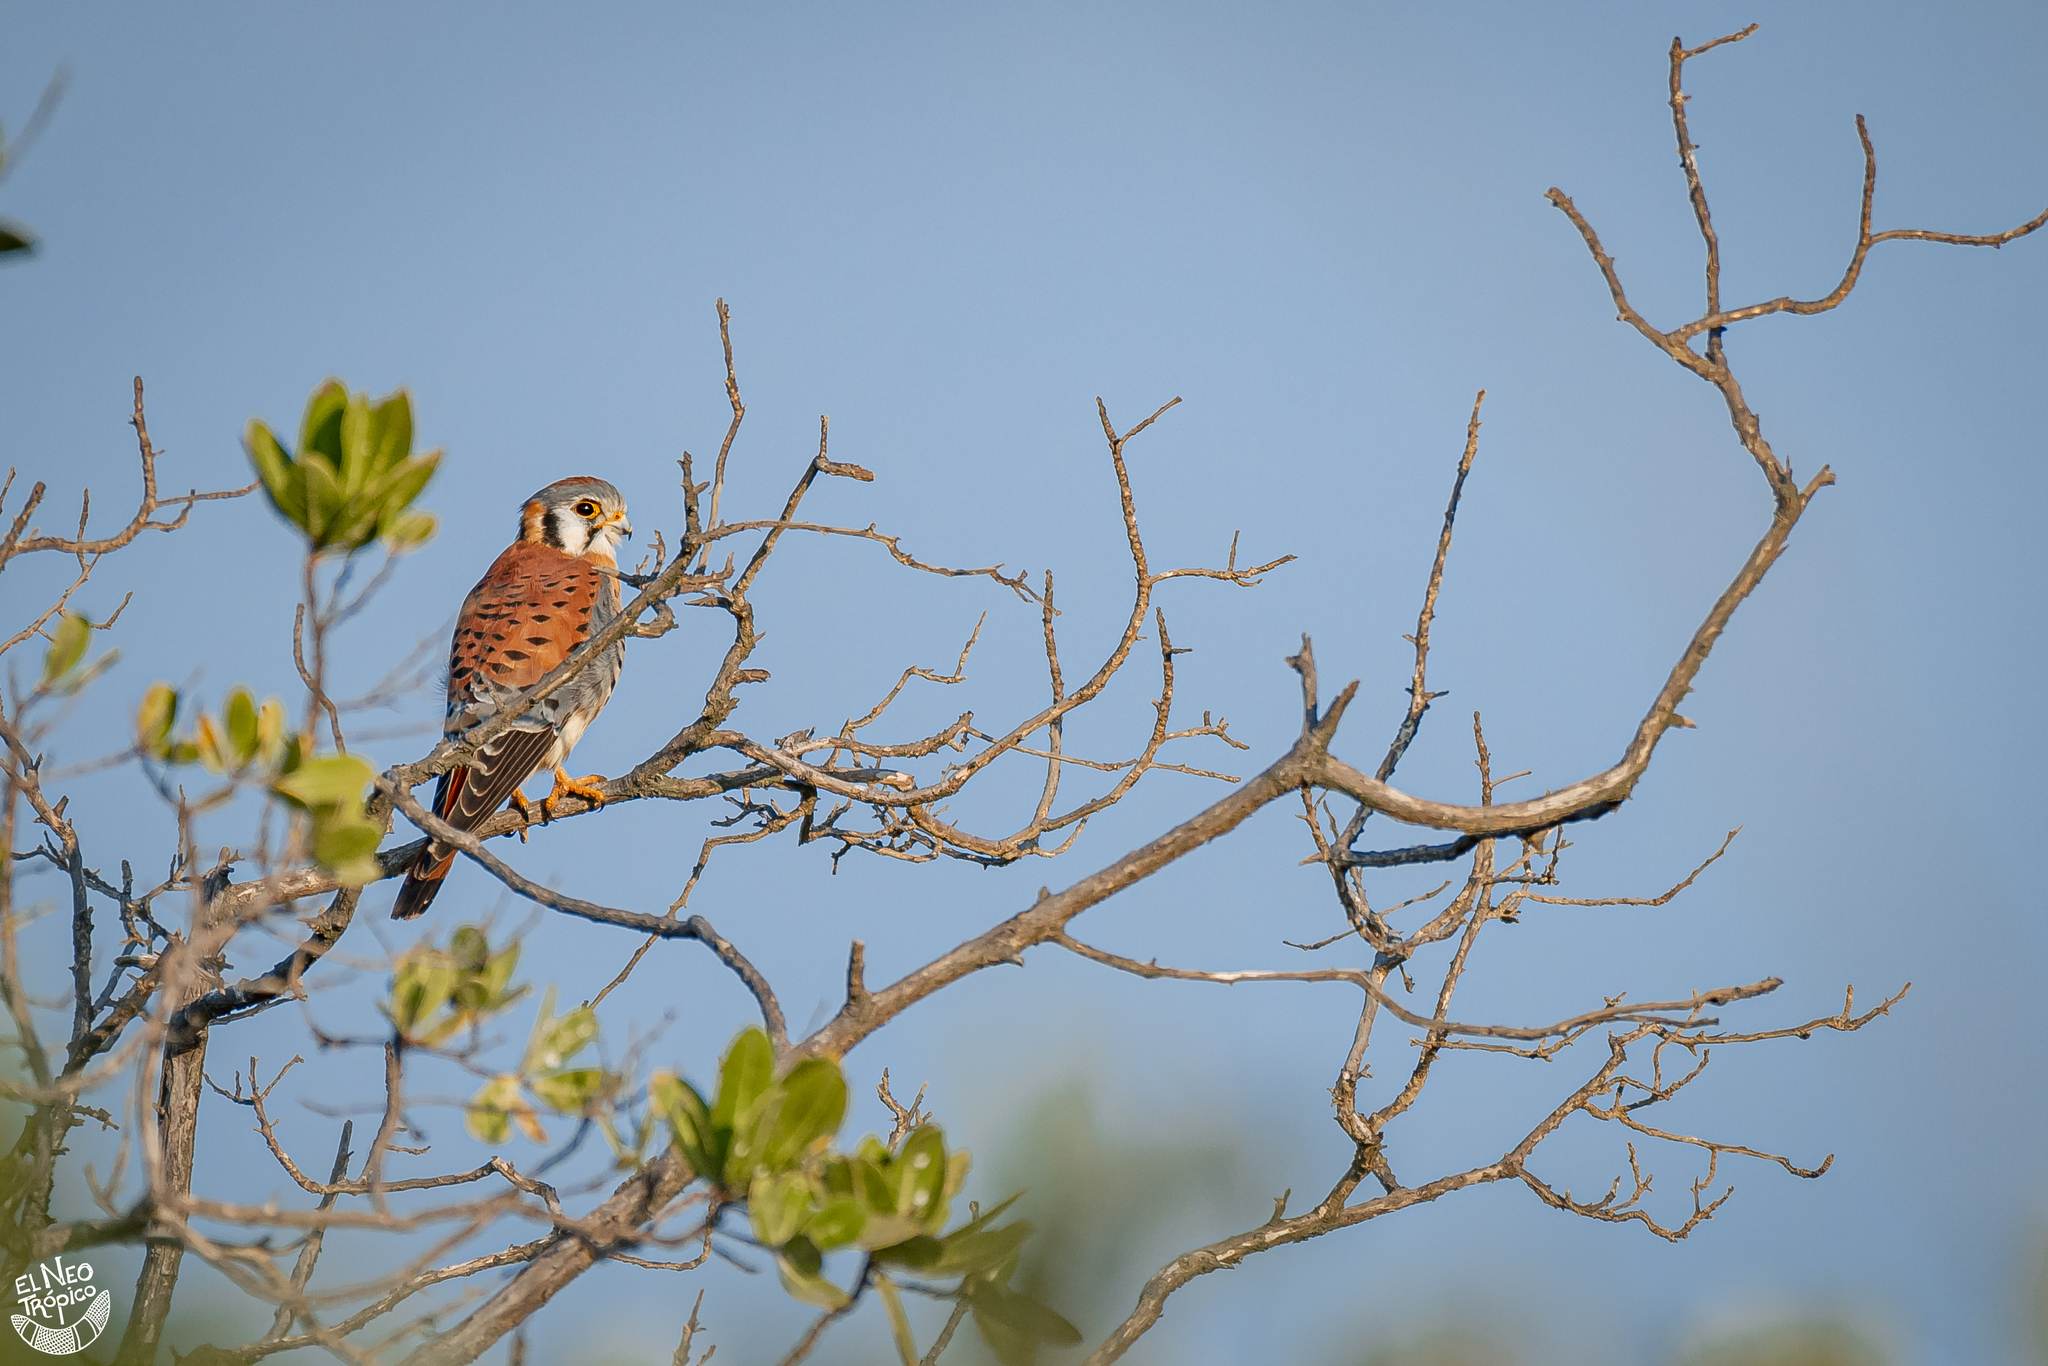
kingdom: Animalia
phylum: Chordata
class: Aves
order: Falconiformes
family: Falconidae
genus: Falco
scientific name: Falco sparverius
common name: American kestrel
